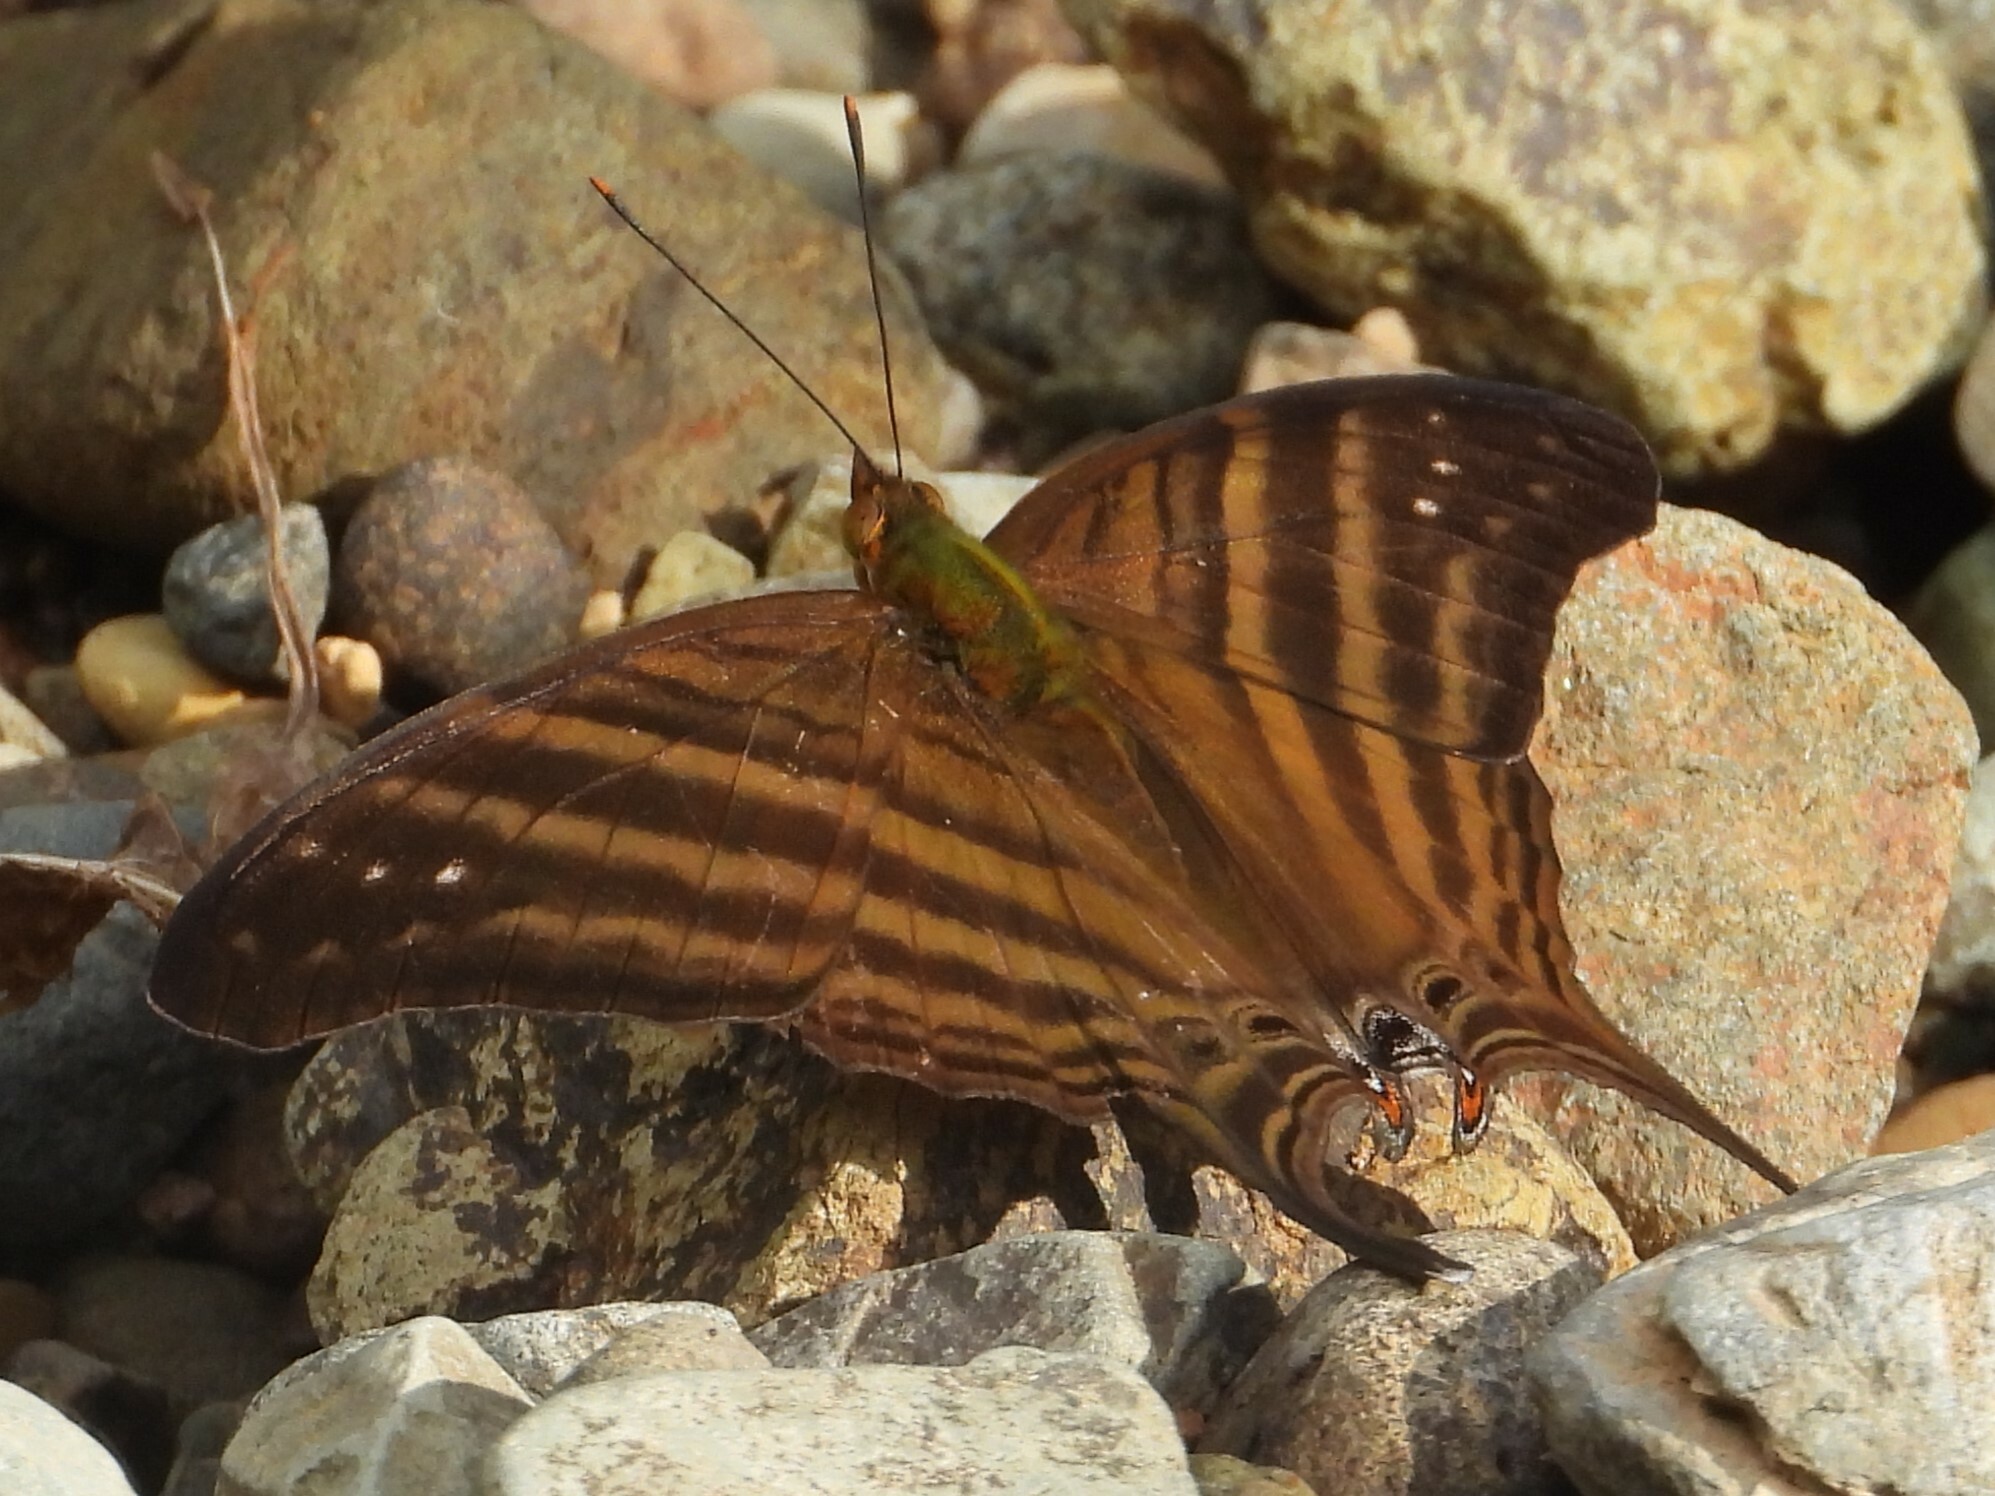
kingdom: Animalia
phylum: Arthropoda
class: Insecta
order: Lepidoptera
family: Nymphalidae
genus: Marpesia
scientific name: Marpesia chiron
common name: Many-banded daggerwing
